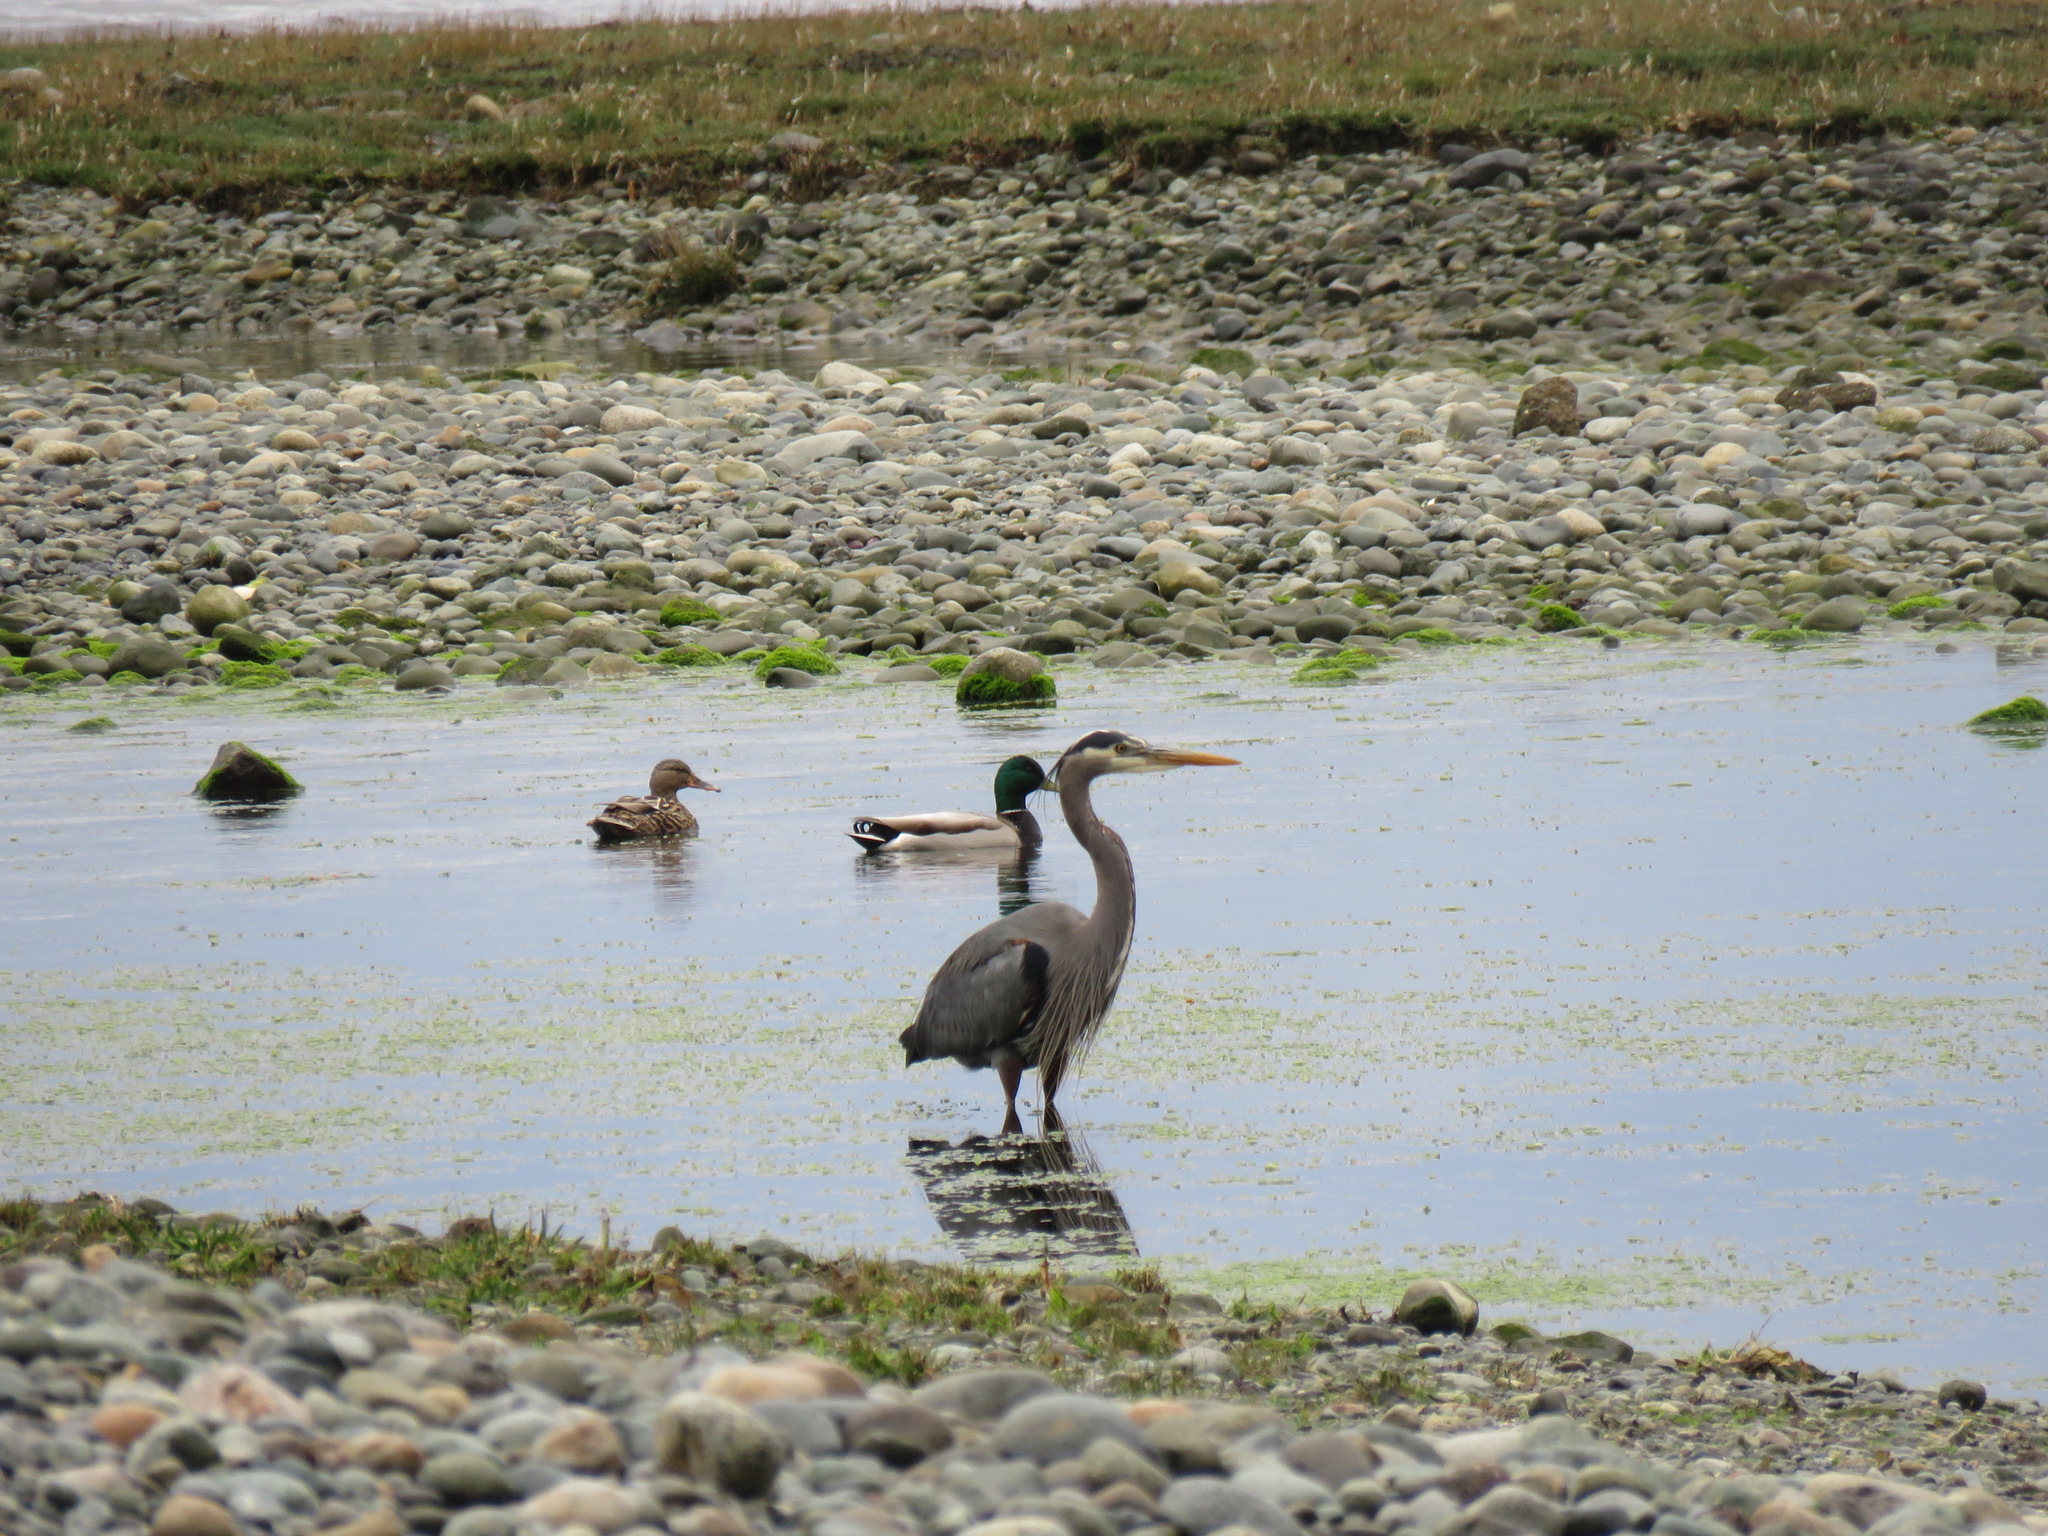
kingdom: Animalia
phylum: Chordata
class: Aves
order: Pelecaniformes
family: Ardeidae
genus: Ardea
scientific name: Ardea herodias
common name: Great blue heron
